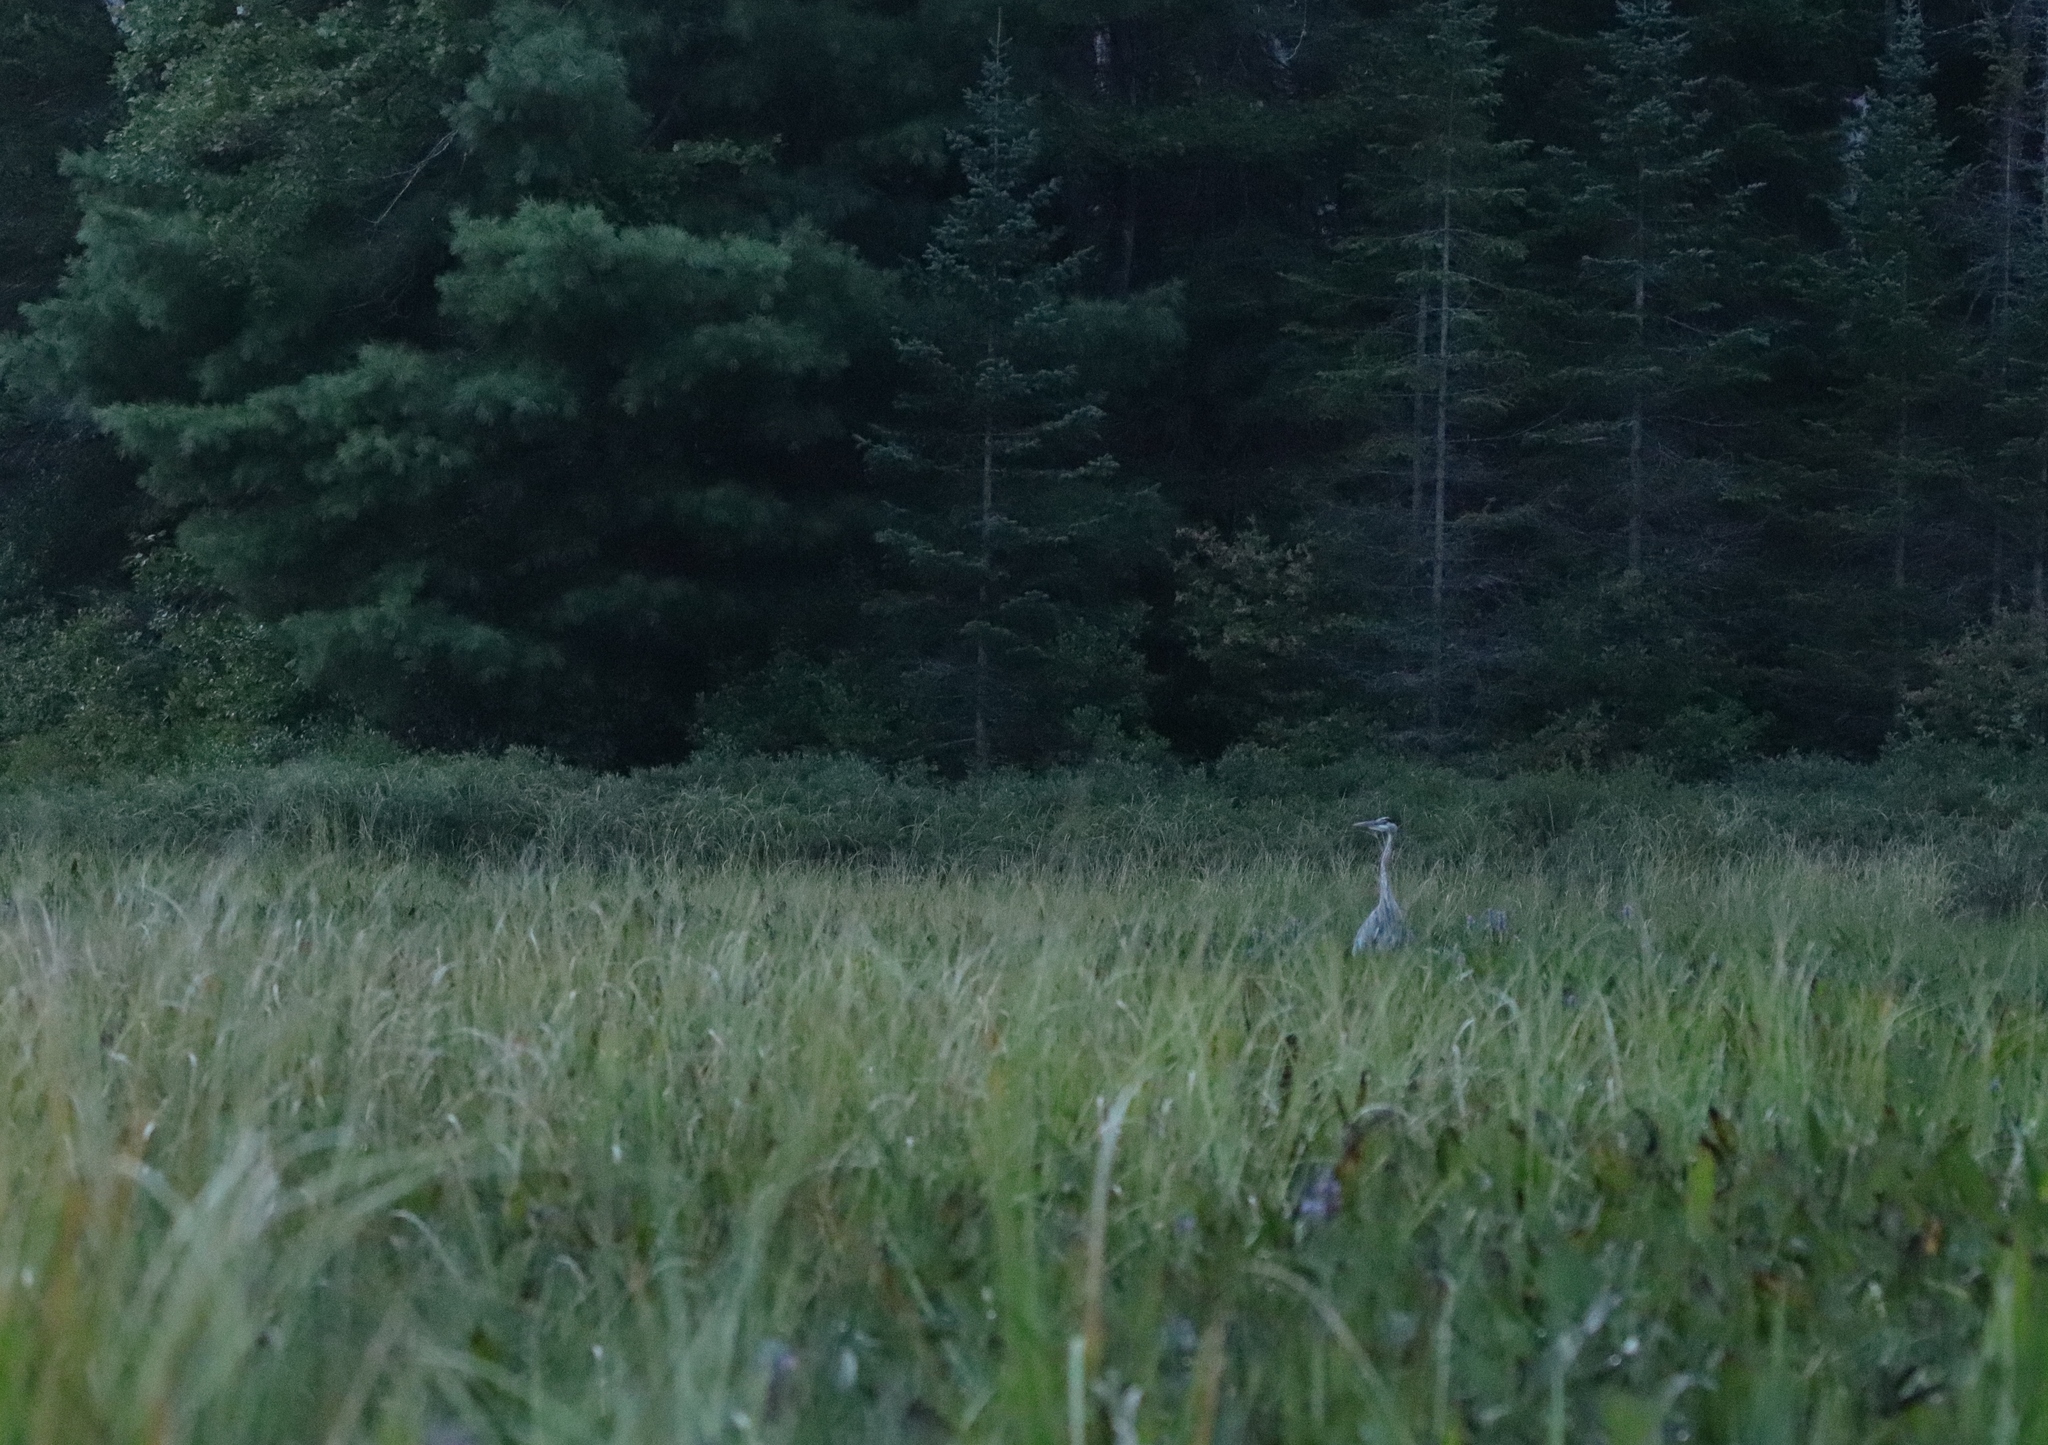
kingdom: Animalia
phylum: Chordata
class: Aves
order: Pelecaniformes
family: Ardeidae
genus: Ardea
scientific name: Ardea herodias
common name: Great blue heron
